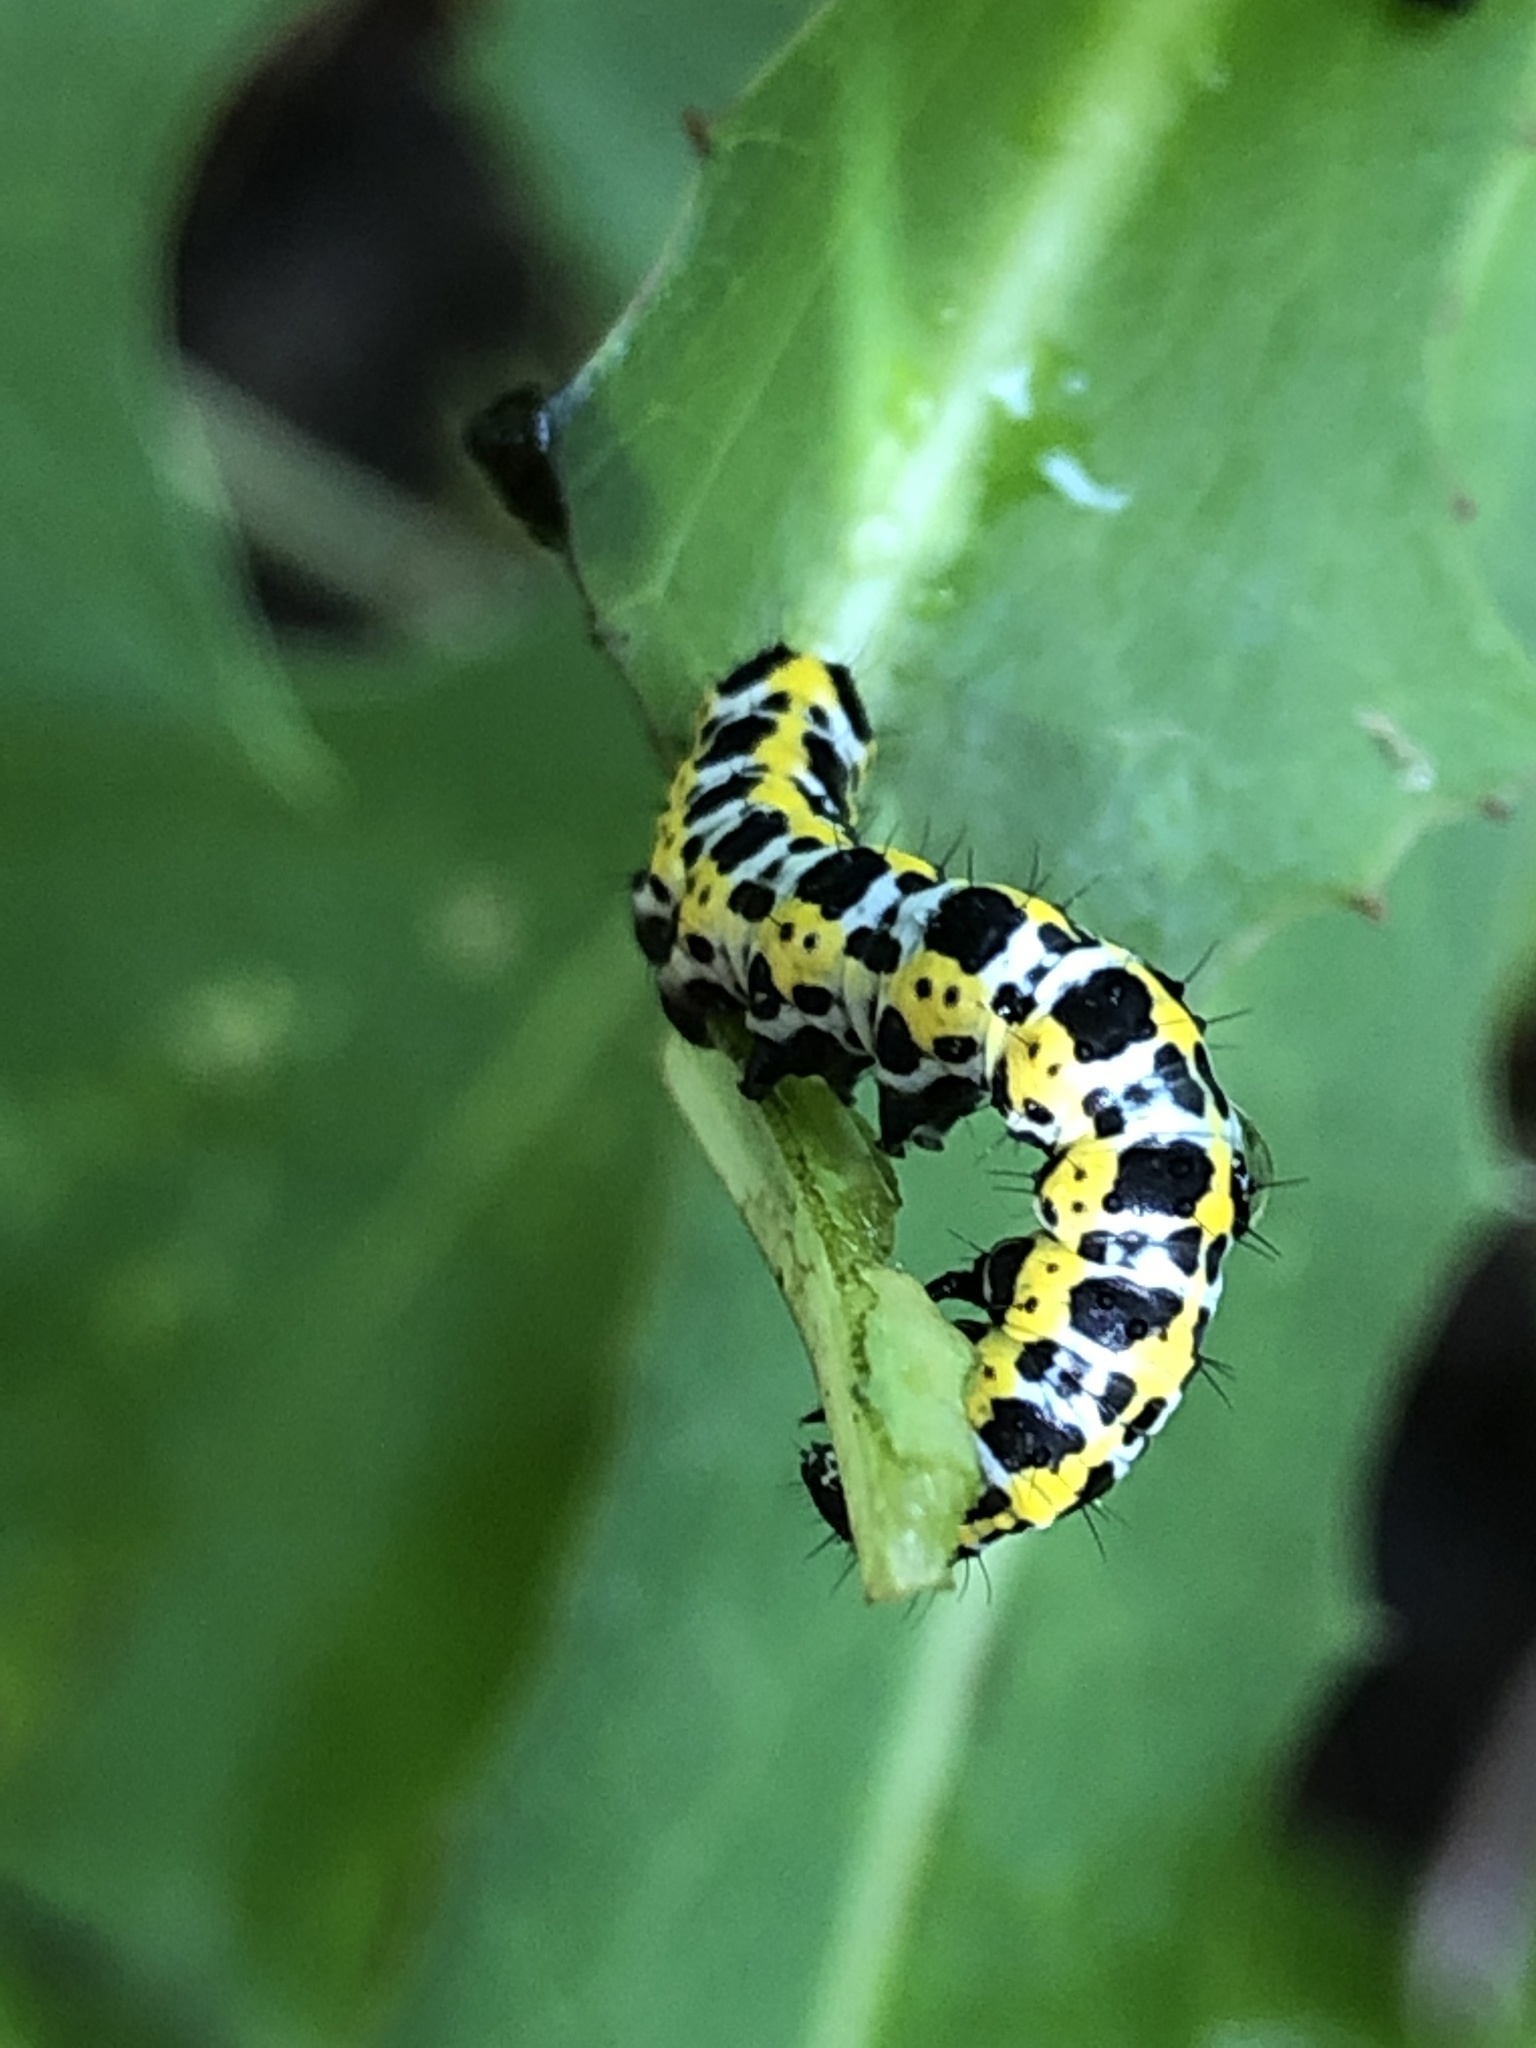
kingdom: Animalia
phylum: Arthropoda
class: Insecta
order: Lepidoptera
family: Noctuidae
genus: Cucullia
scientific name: Cucullia pustulata
